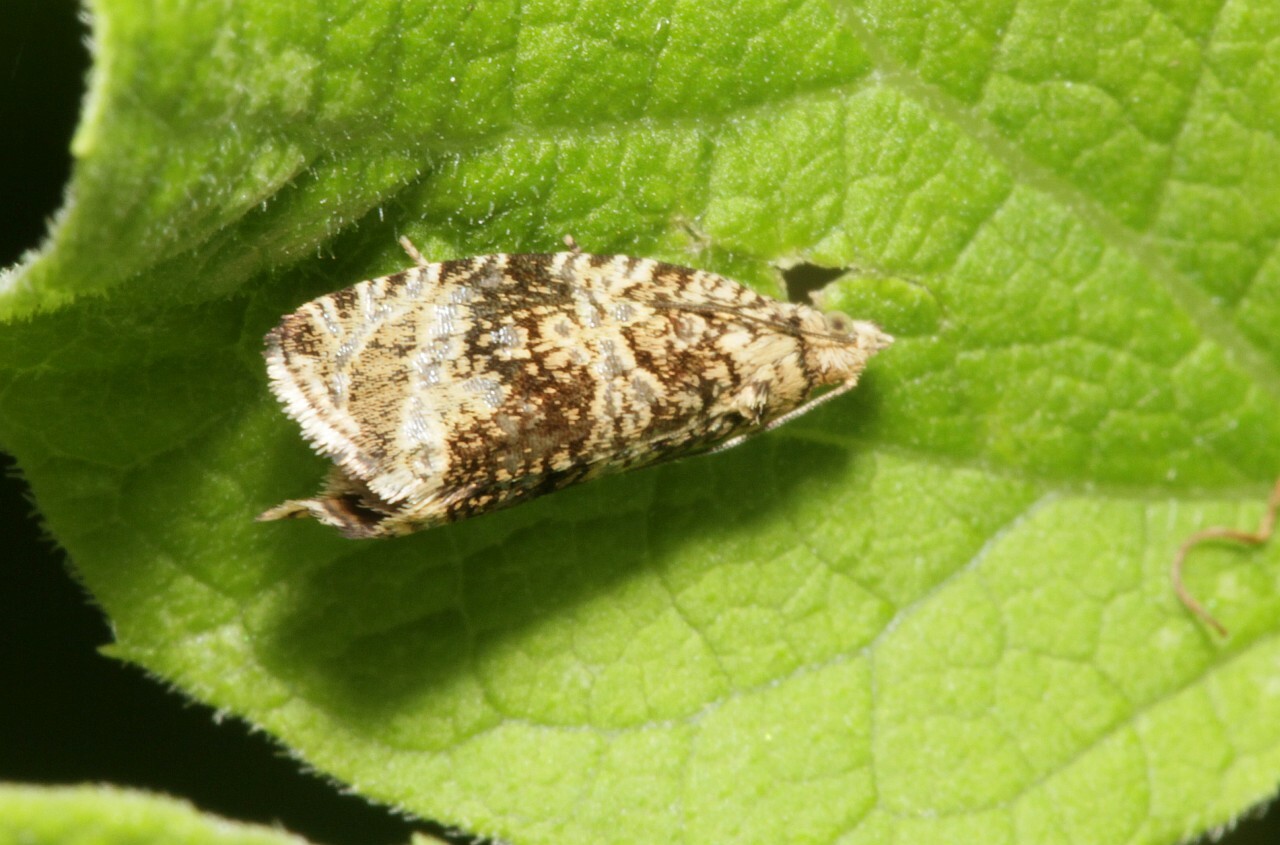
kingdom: Animalia
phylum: Arthropoda
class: Insecta
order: Lepidoptera
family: Tortricidae
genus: Syricoris
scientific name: Syricoris lacunana
